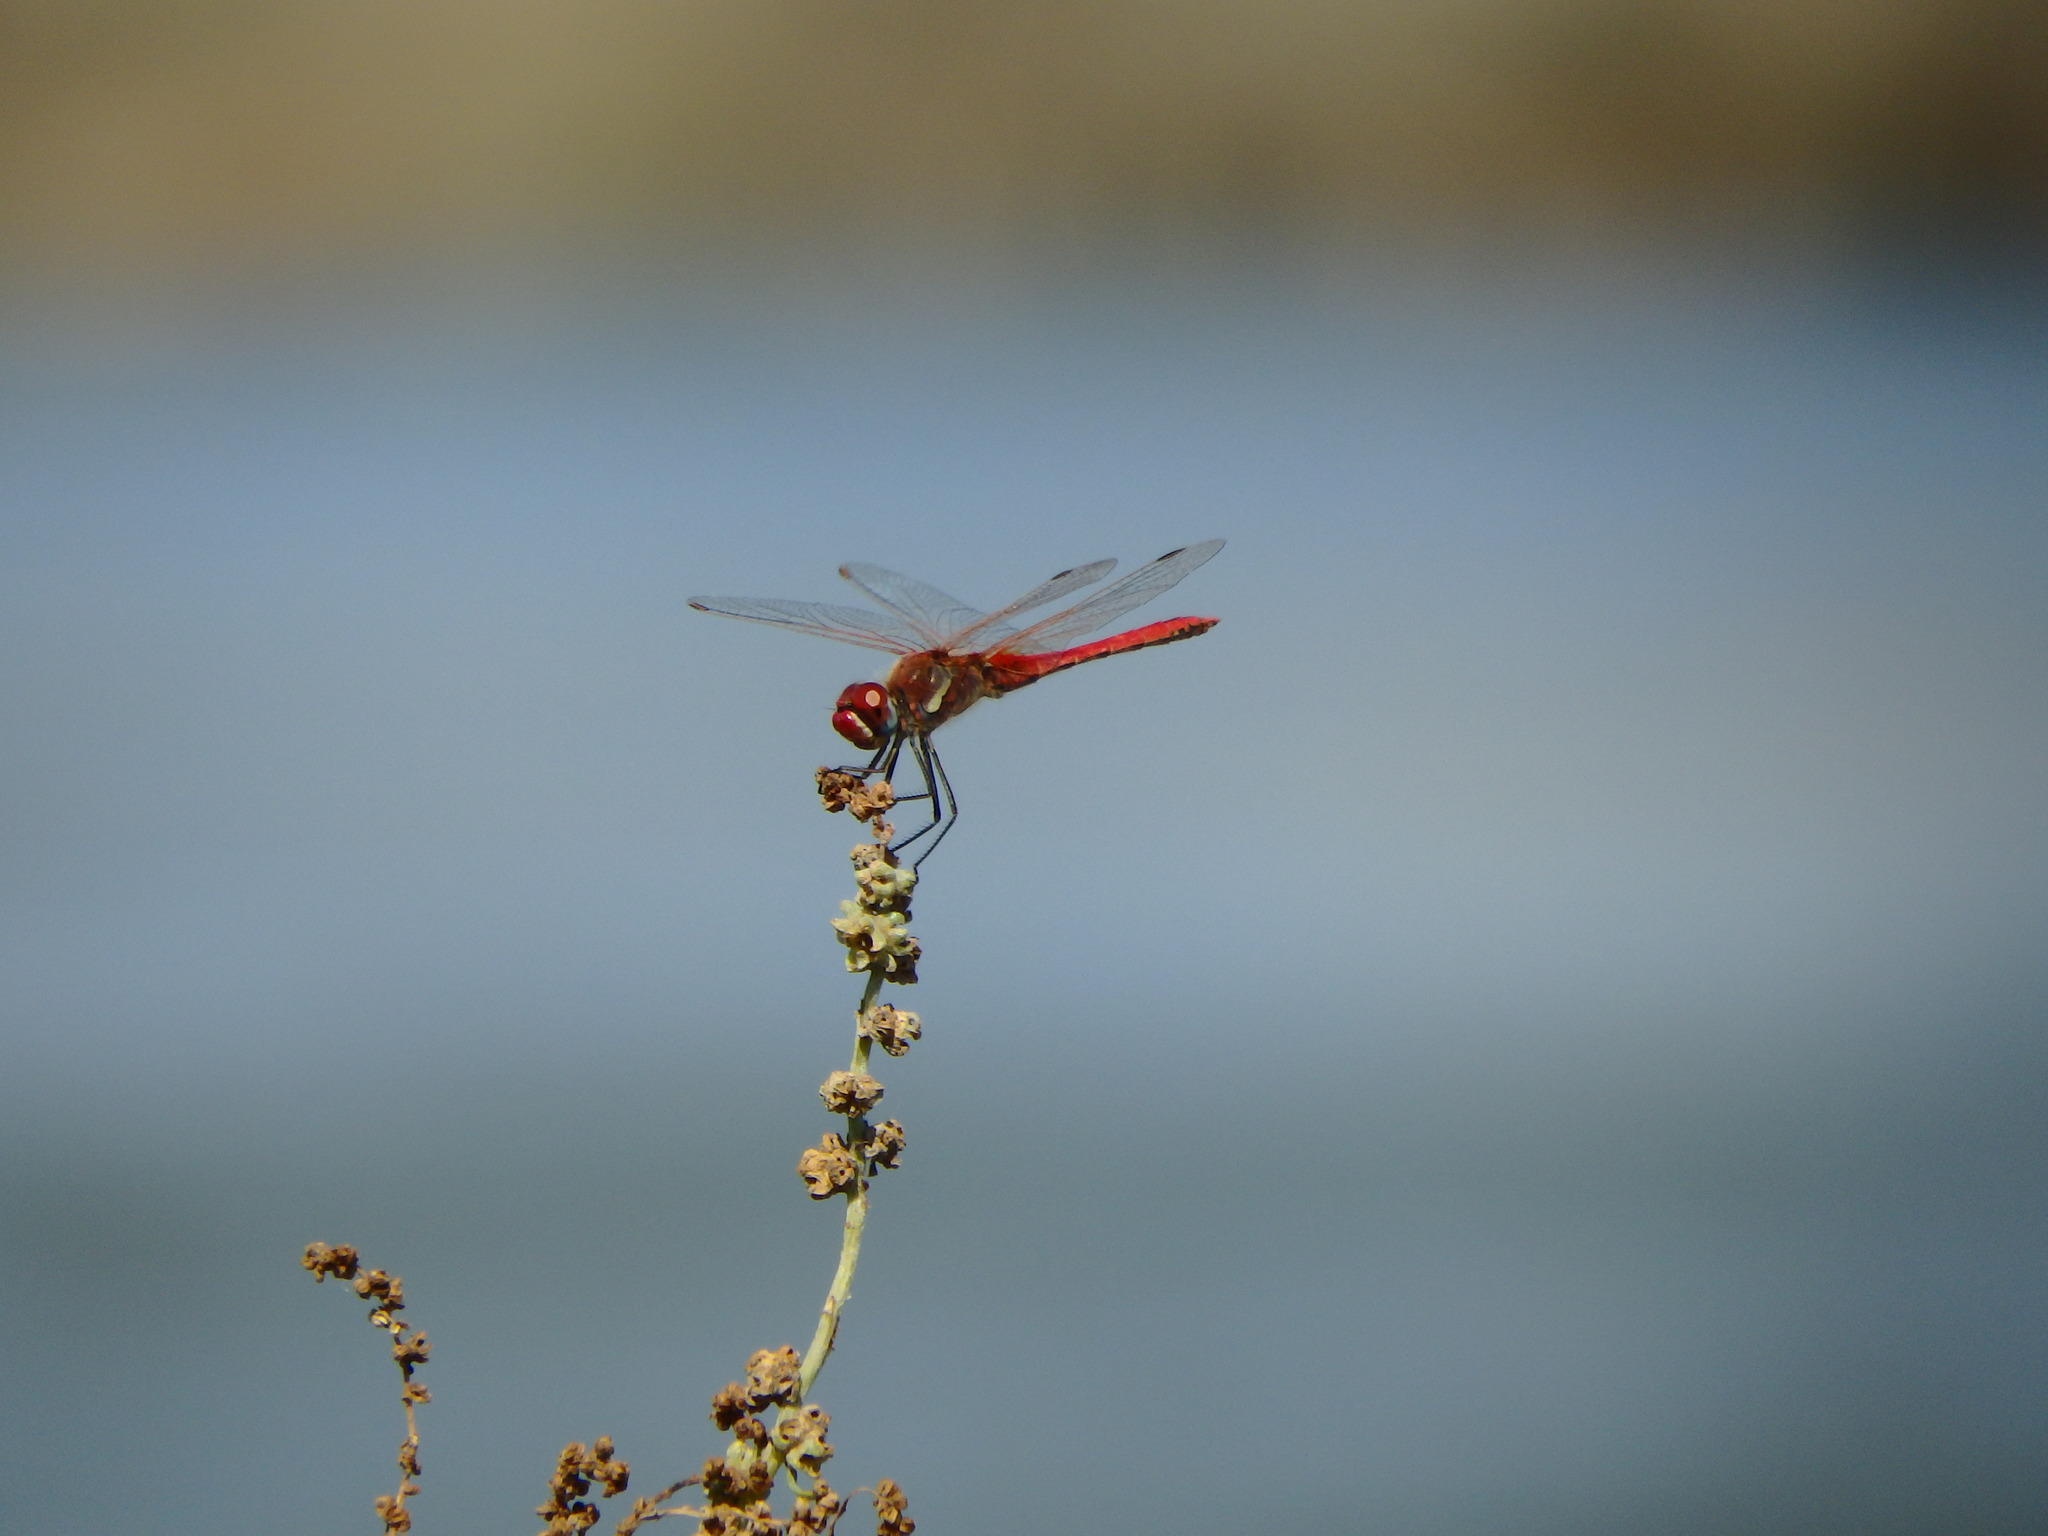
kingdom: Animalia
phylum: Arthropoda
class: Insecta
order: Odonata
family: Libellulidae
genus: Sympetrum
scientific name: Sympetrum fonscolombii
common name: Red-veined darter
